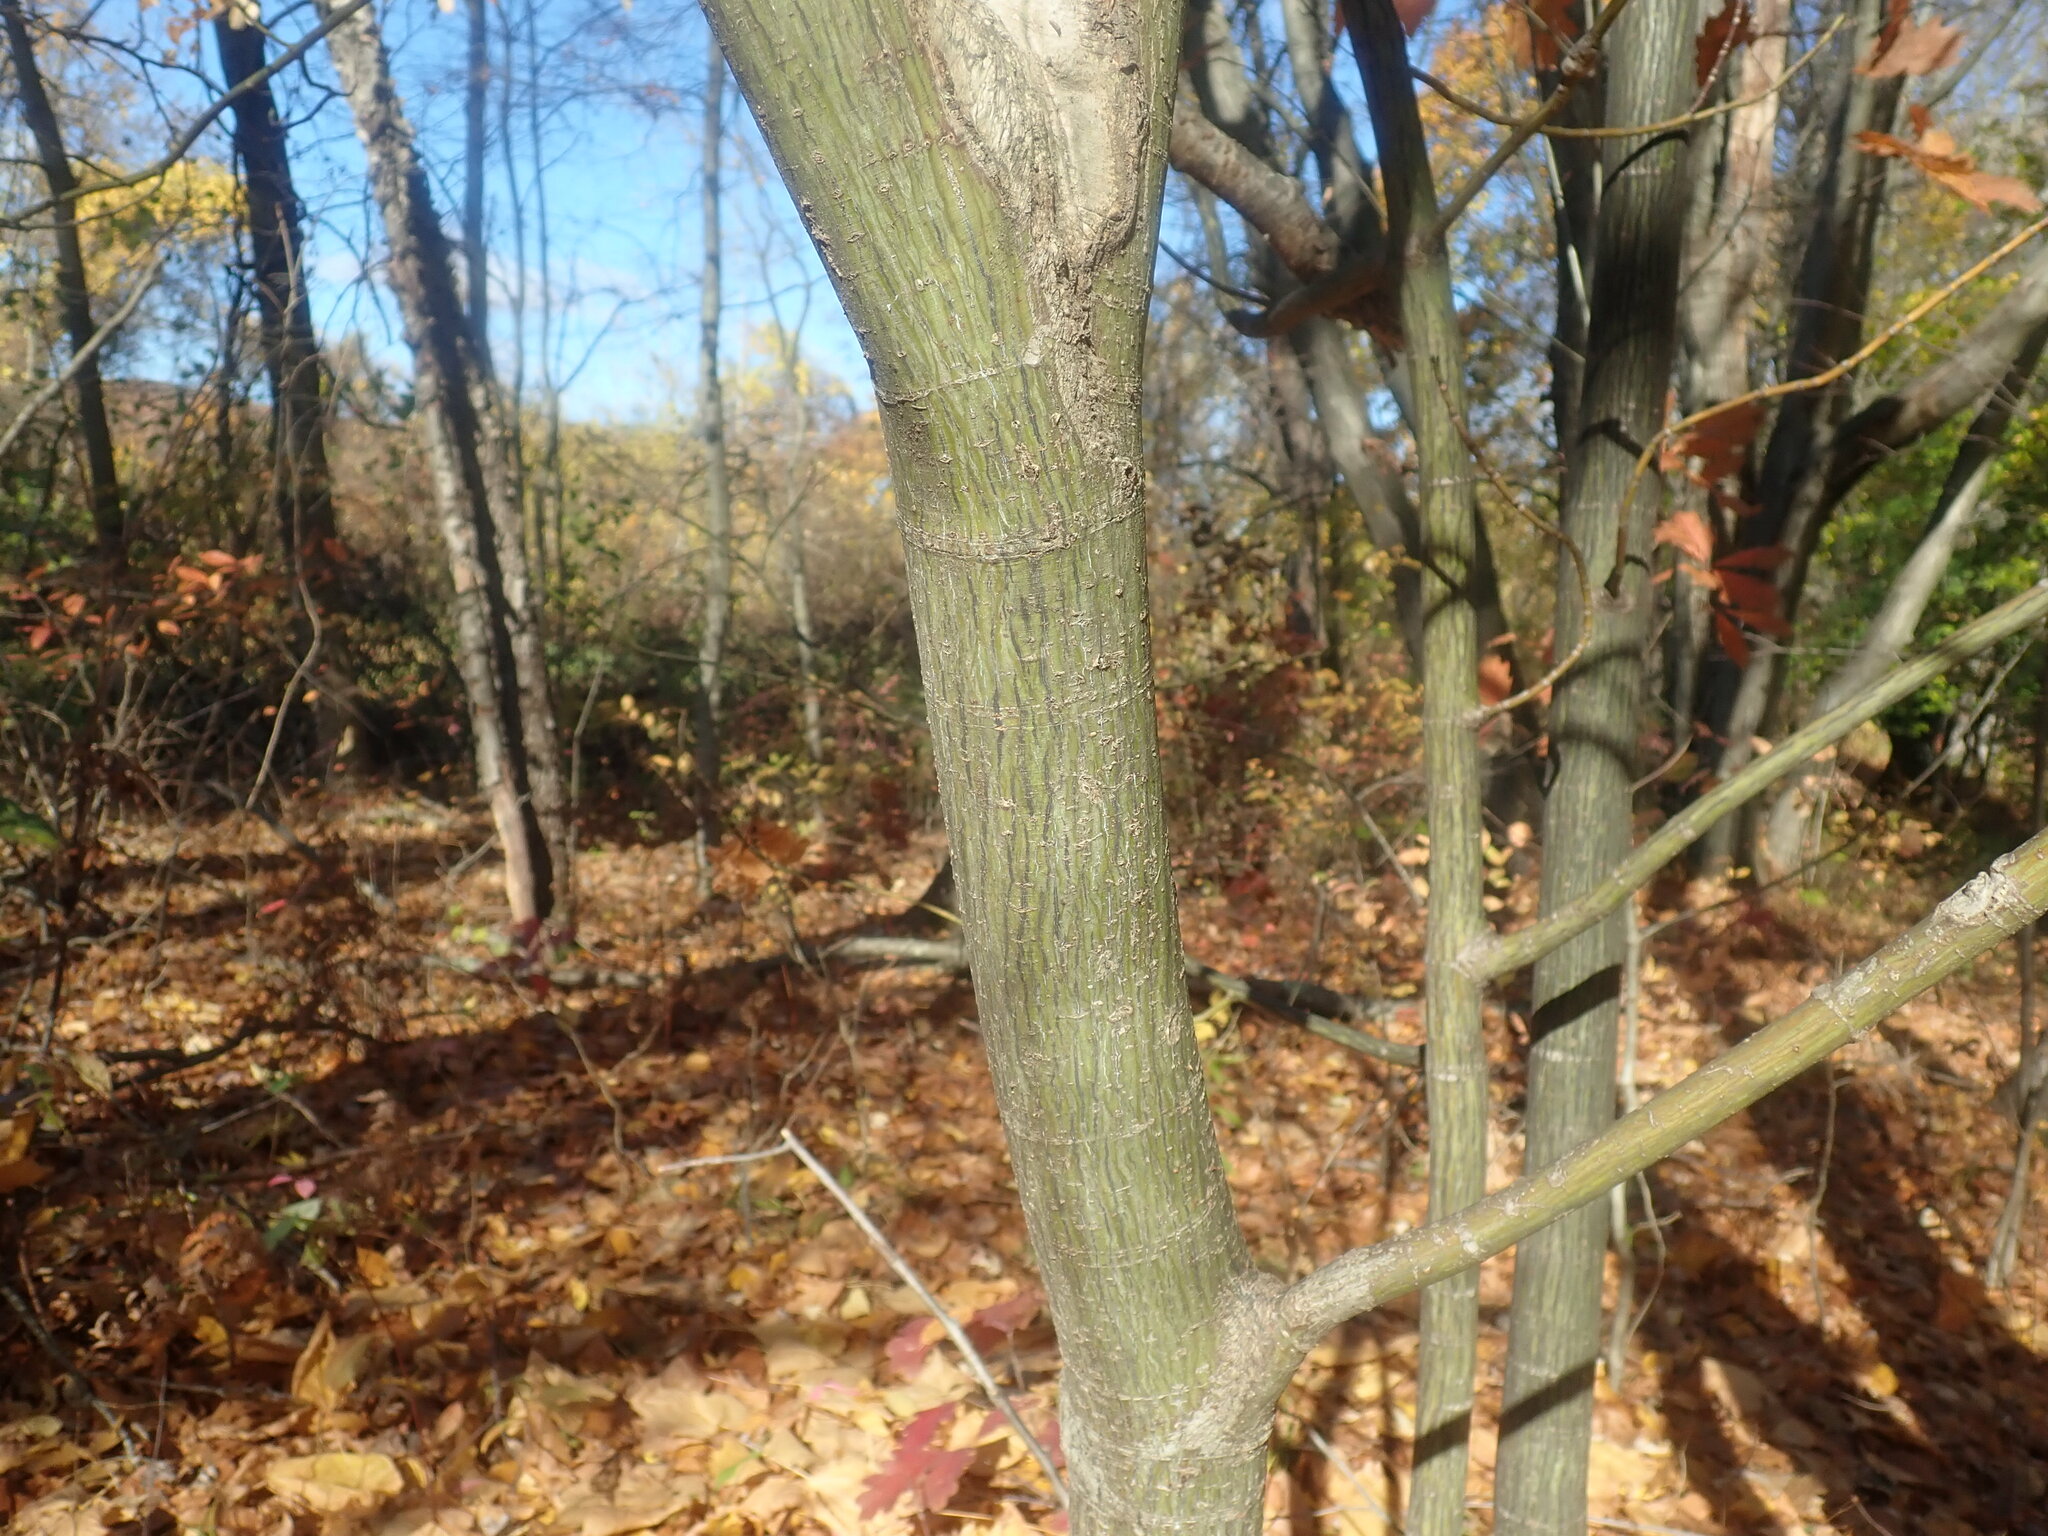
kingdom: Plantae
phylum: Tracheophyta
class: Magnoliopsida
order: Sapindales
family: Sapindaceae
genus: Acer
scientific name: Acer pensylvanicum
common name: Moosewood
